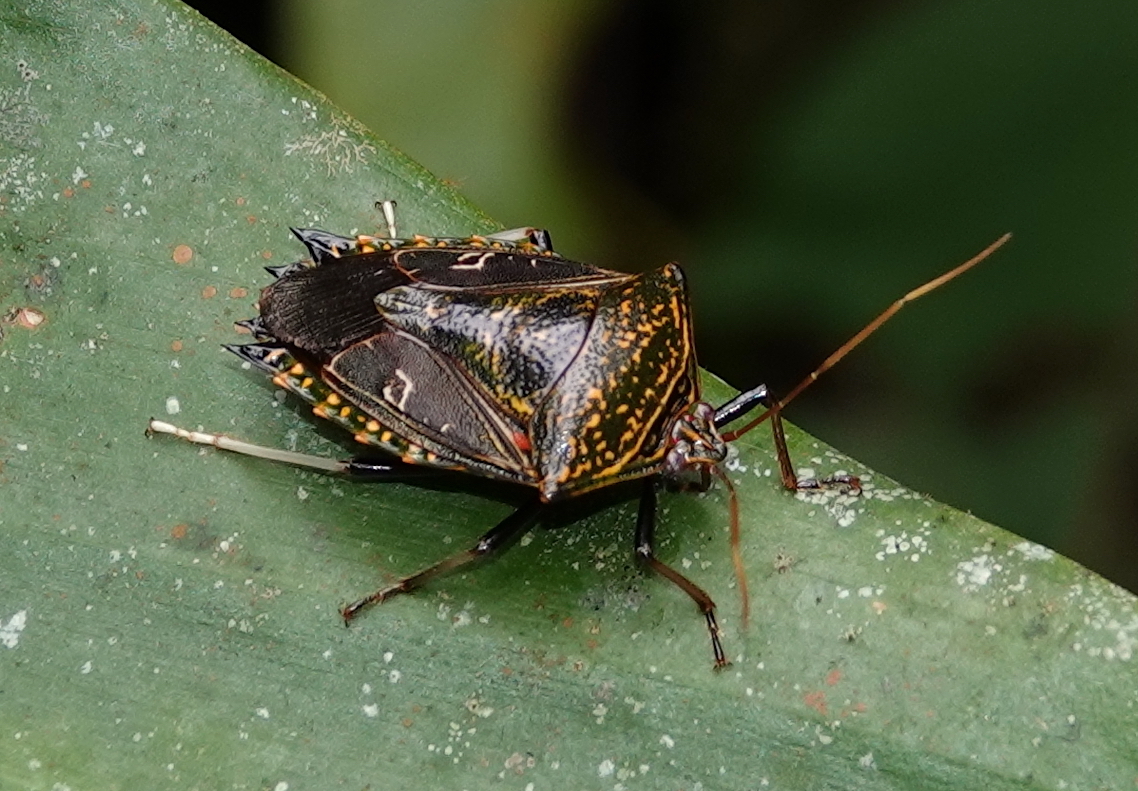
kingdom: Animalia
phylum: Arthropoda
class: Insecta
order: Hemiptera
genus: Pygoda
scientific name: Pygoda poecila
